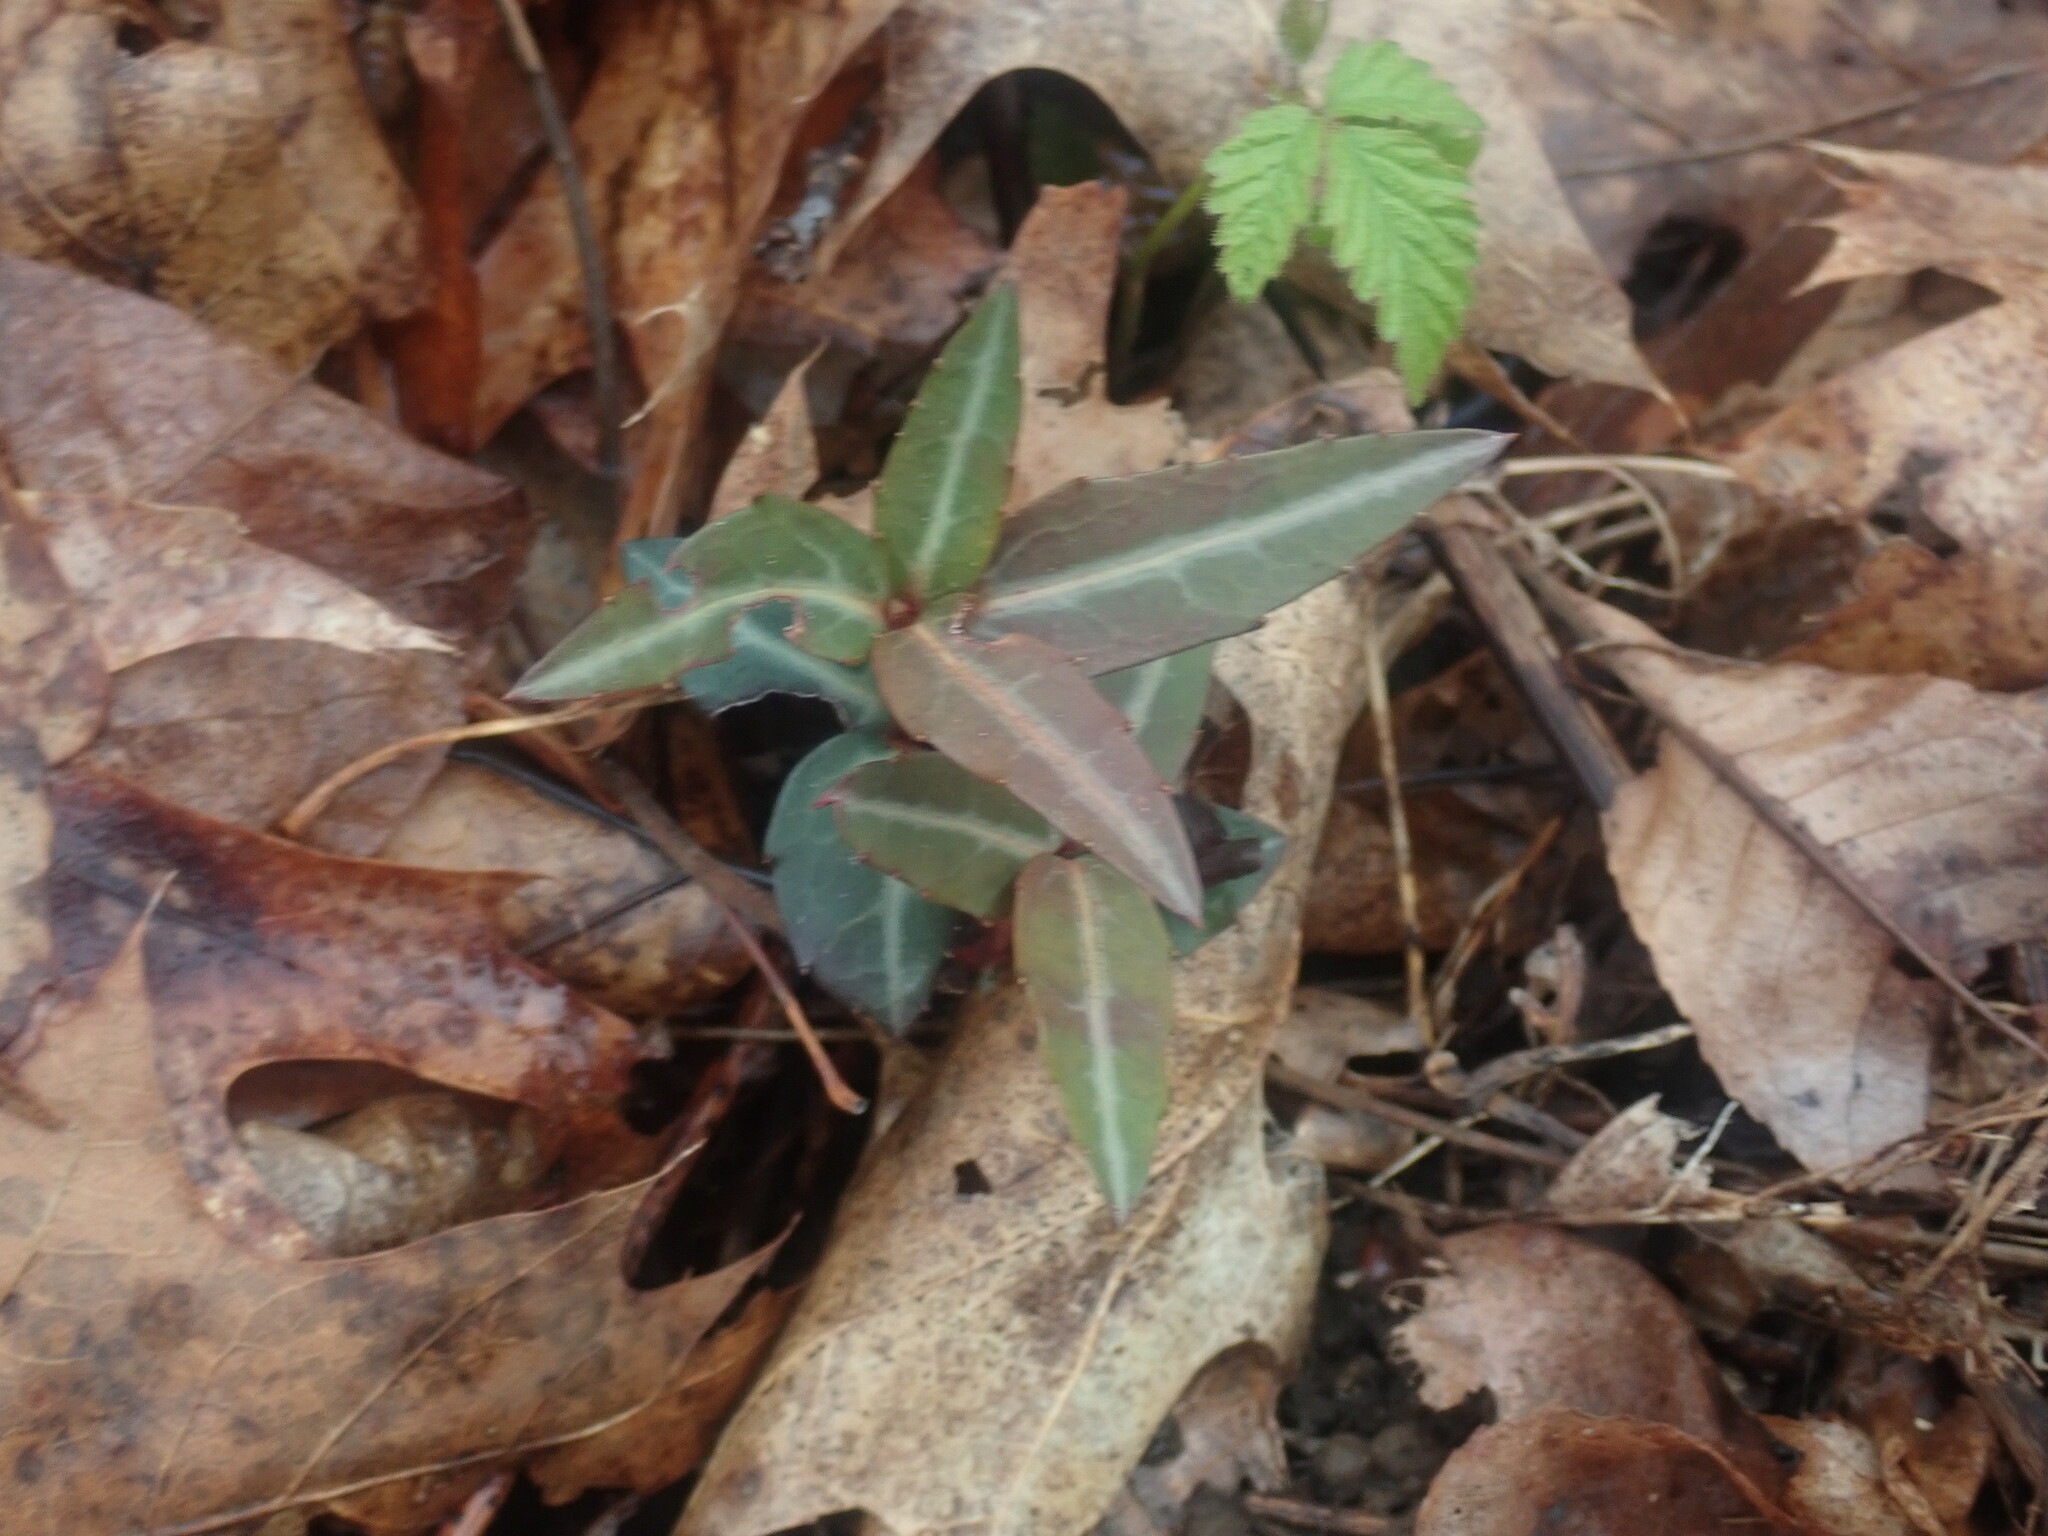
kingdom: Plantae
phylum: Tracheophyta
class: Magnoliopsida
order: Ericales
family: Ericaceae
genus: Chimaphila
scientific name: Chimaphila maculata
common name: Spotted pipsissewa
